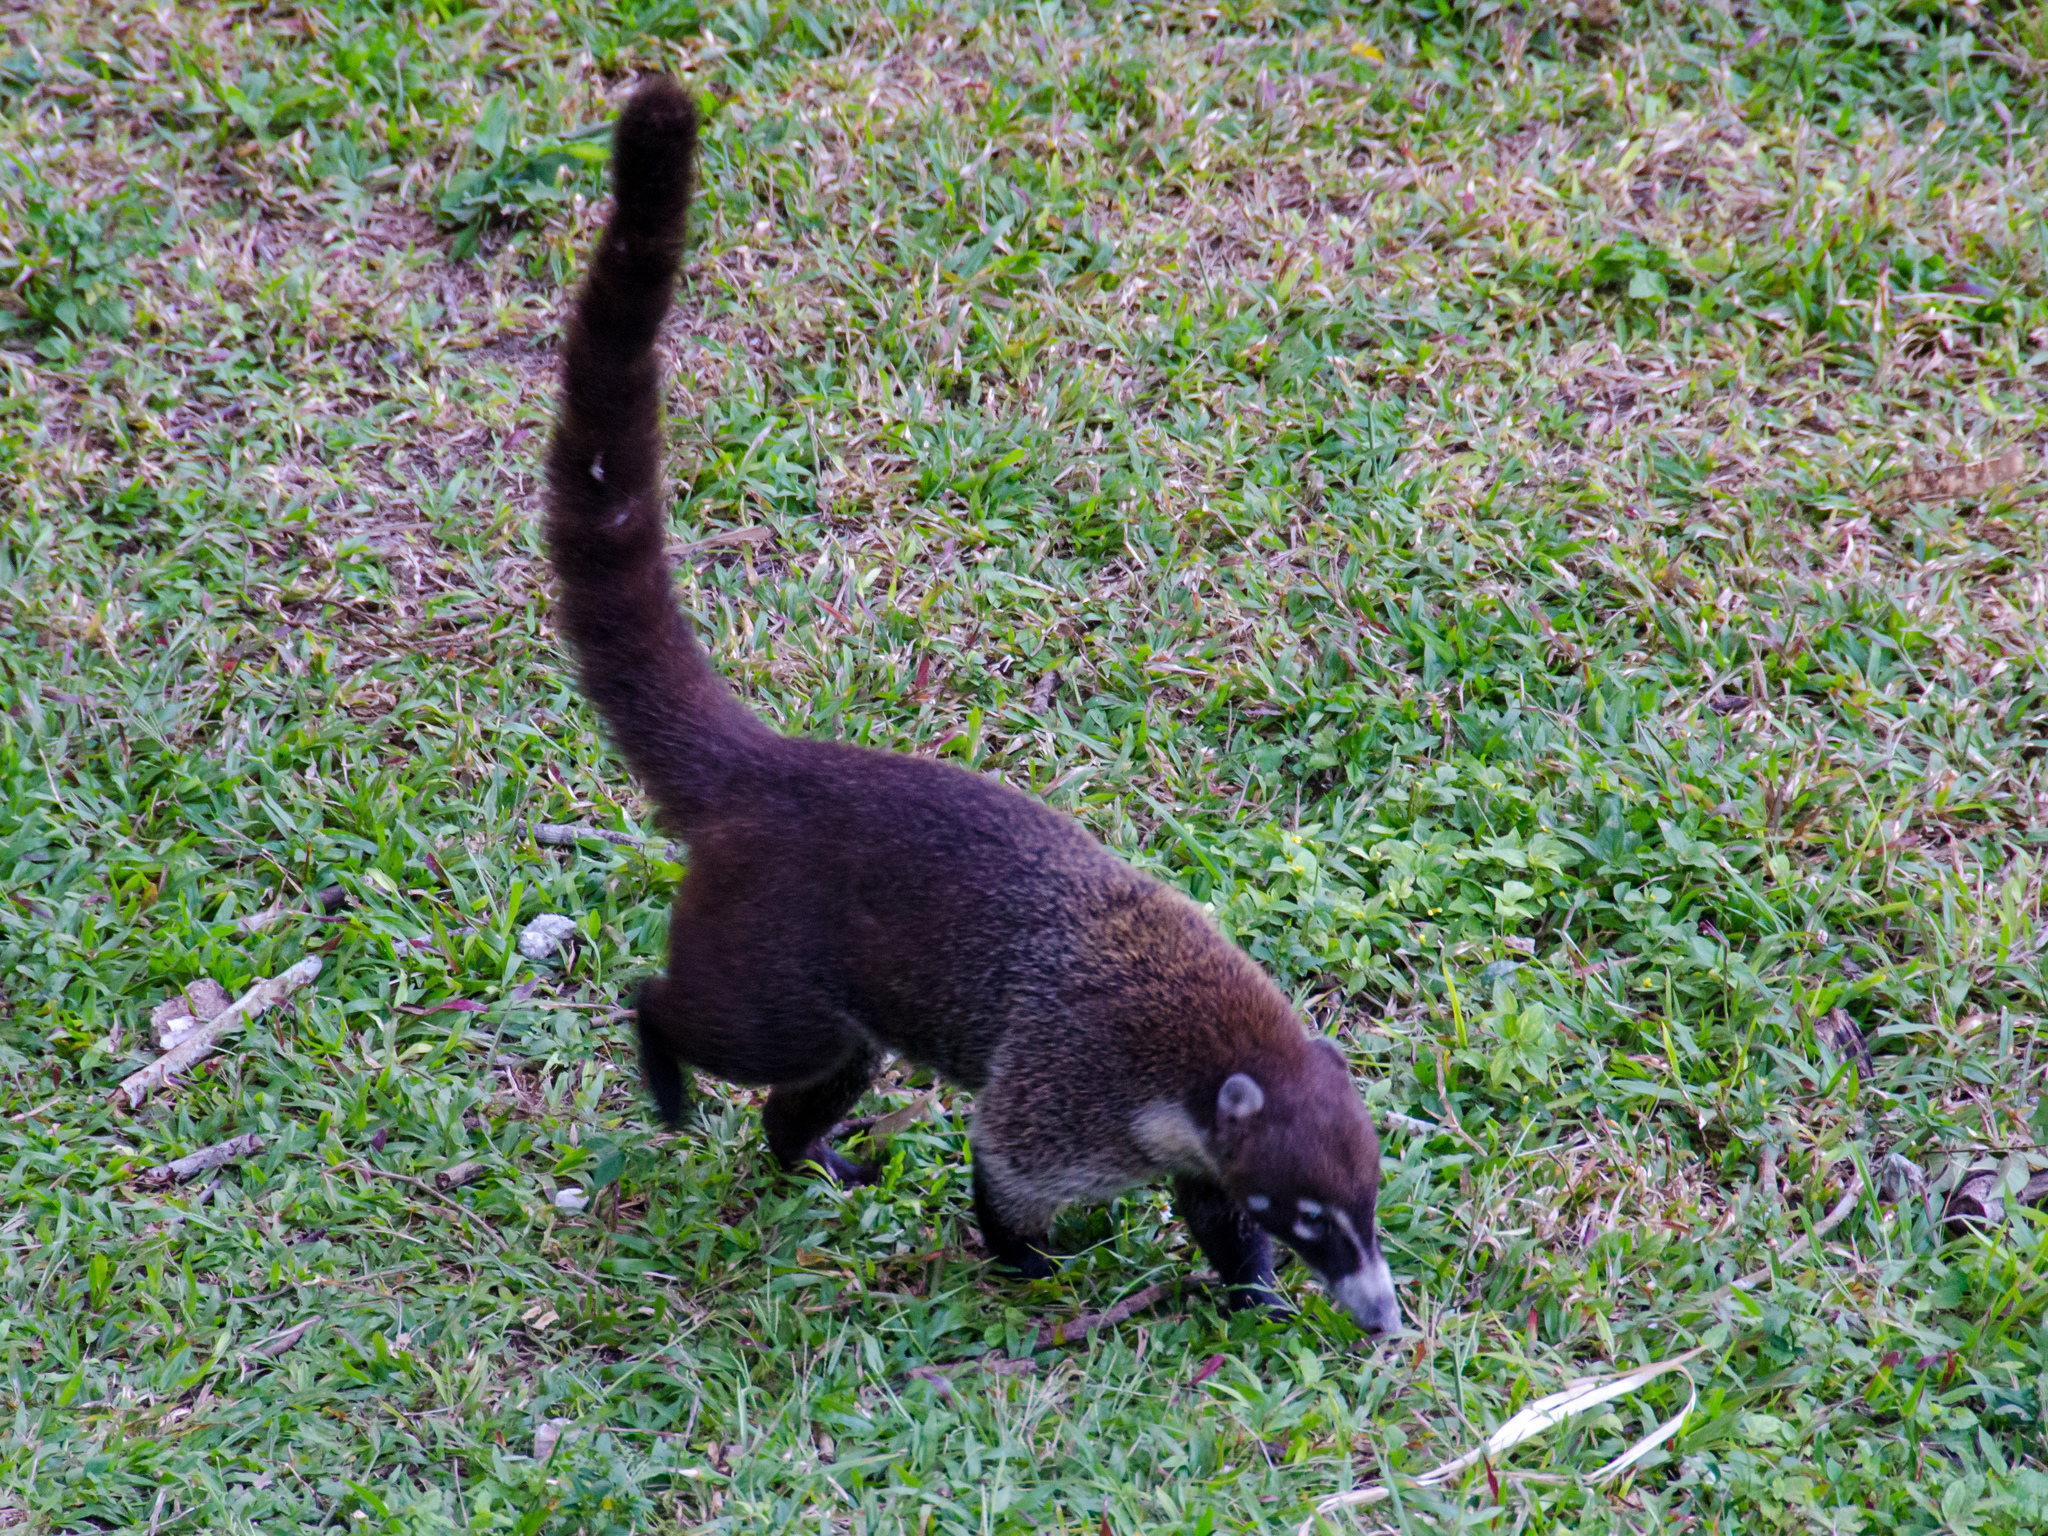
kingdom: Animalia
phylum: Chordata
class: Mammalia
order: Carnivora
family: Procyonidae
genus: Nasua
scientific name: Nasua narica
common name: White-nosed coati
